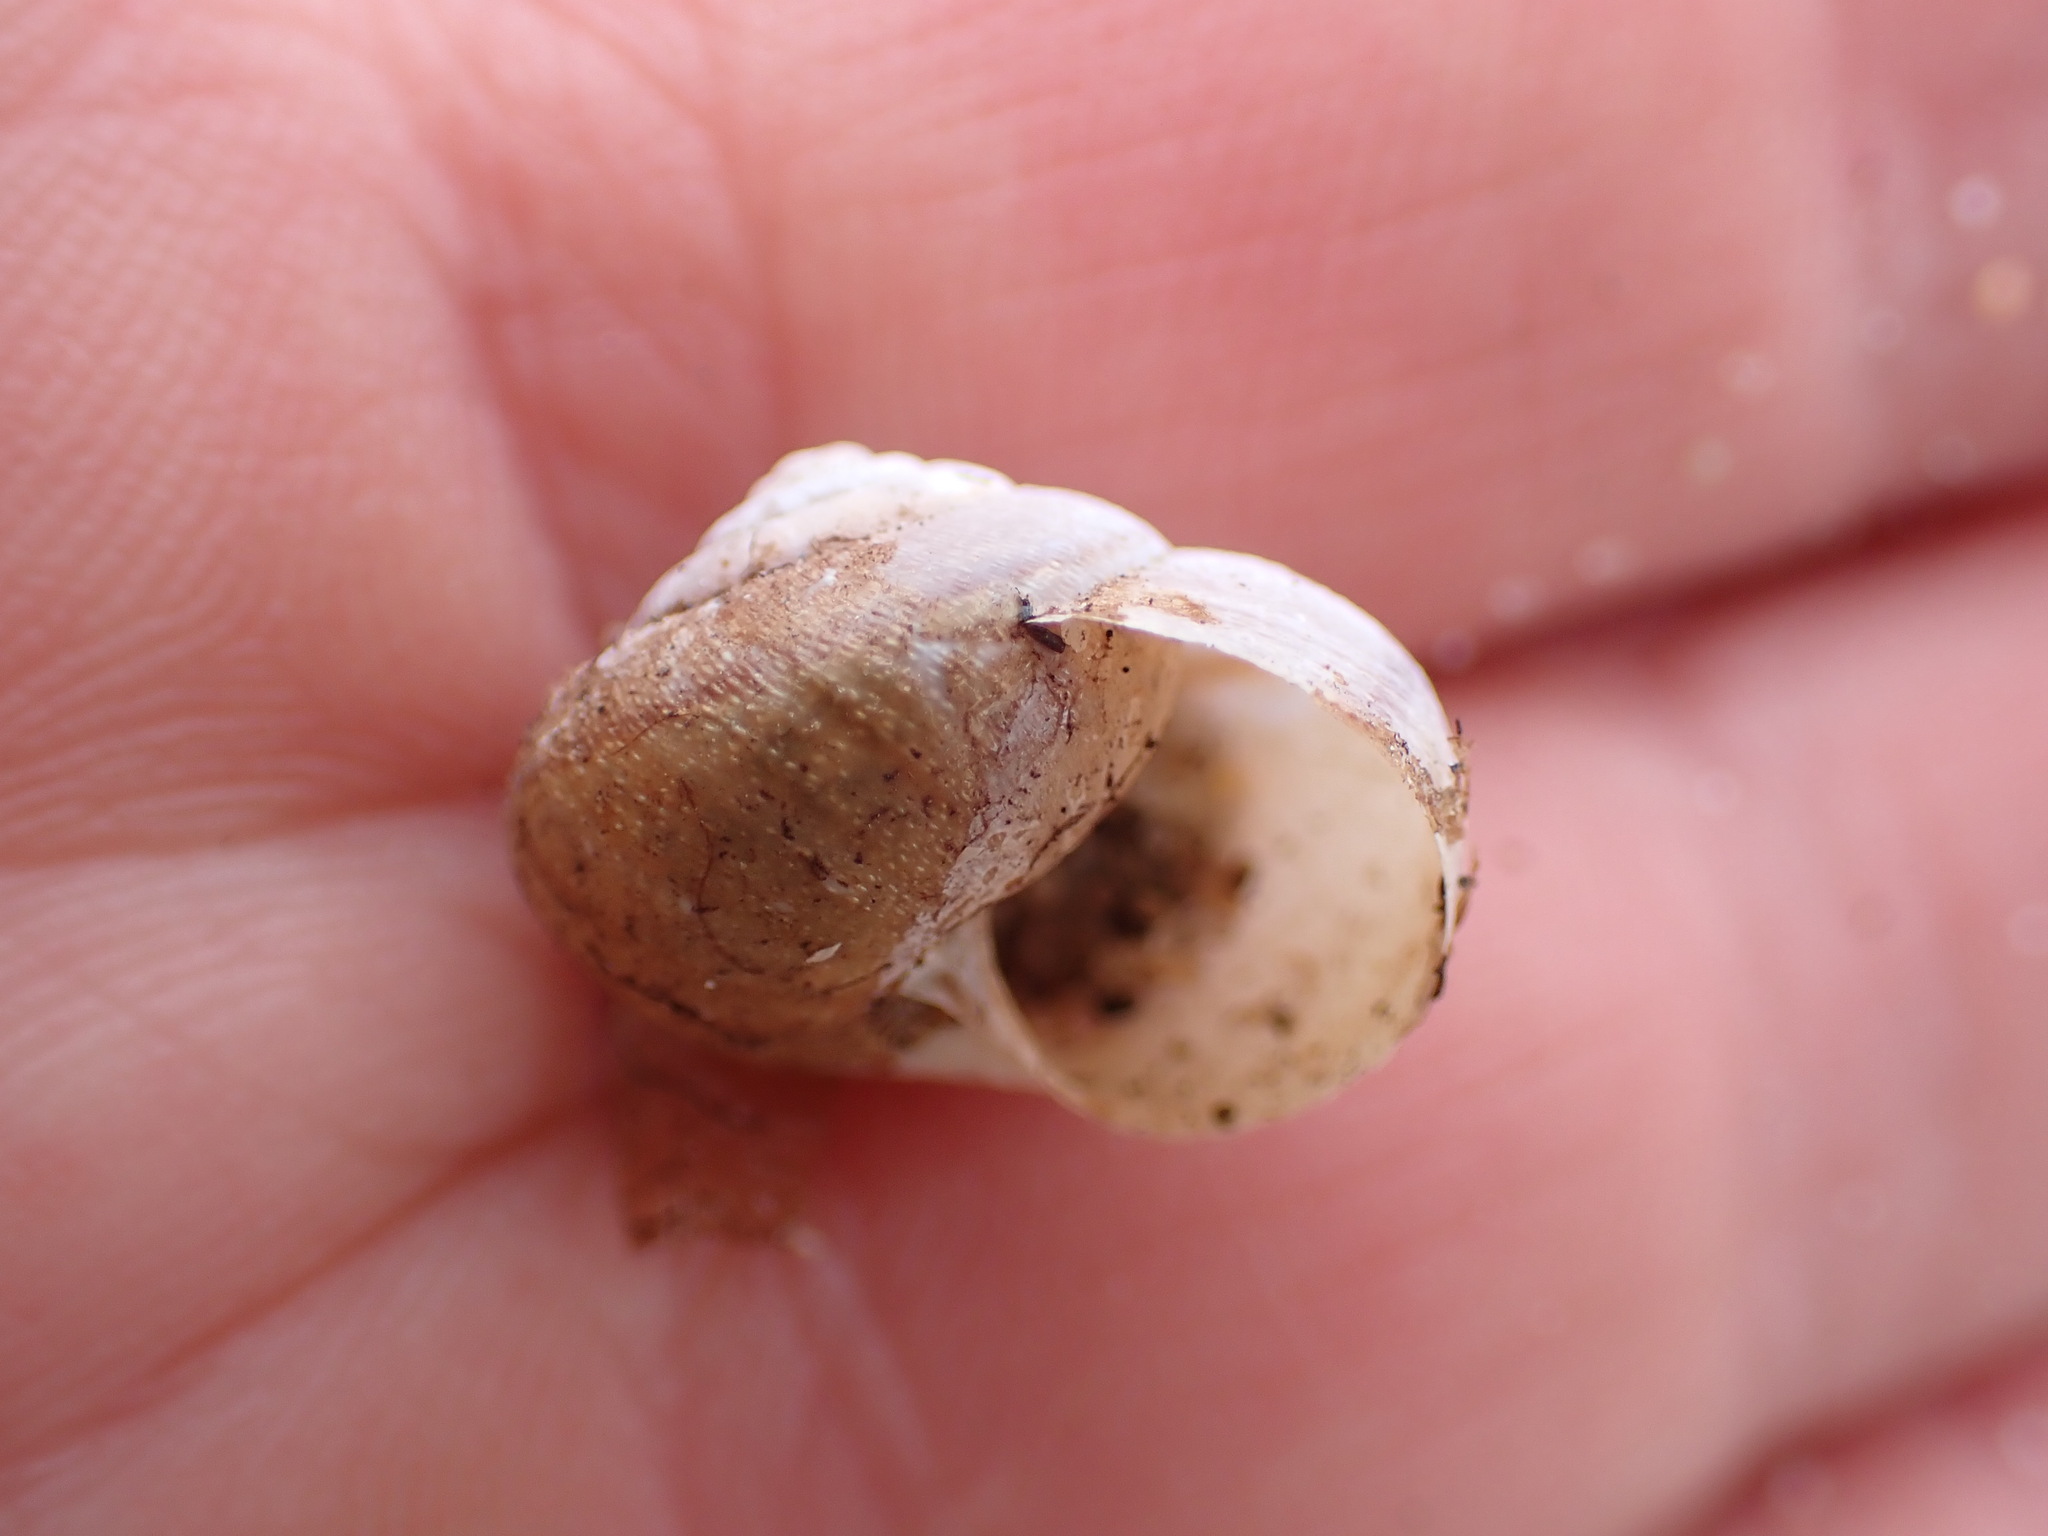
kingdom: Animalia
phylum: Mollusca
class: Gastropoda
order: Stylommatophora
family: Xanthonychidae
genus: Helminthoglypta
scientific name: Helminthoglypta nickliniana
